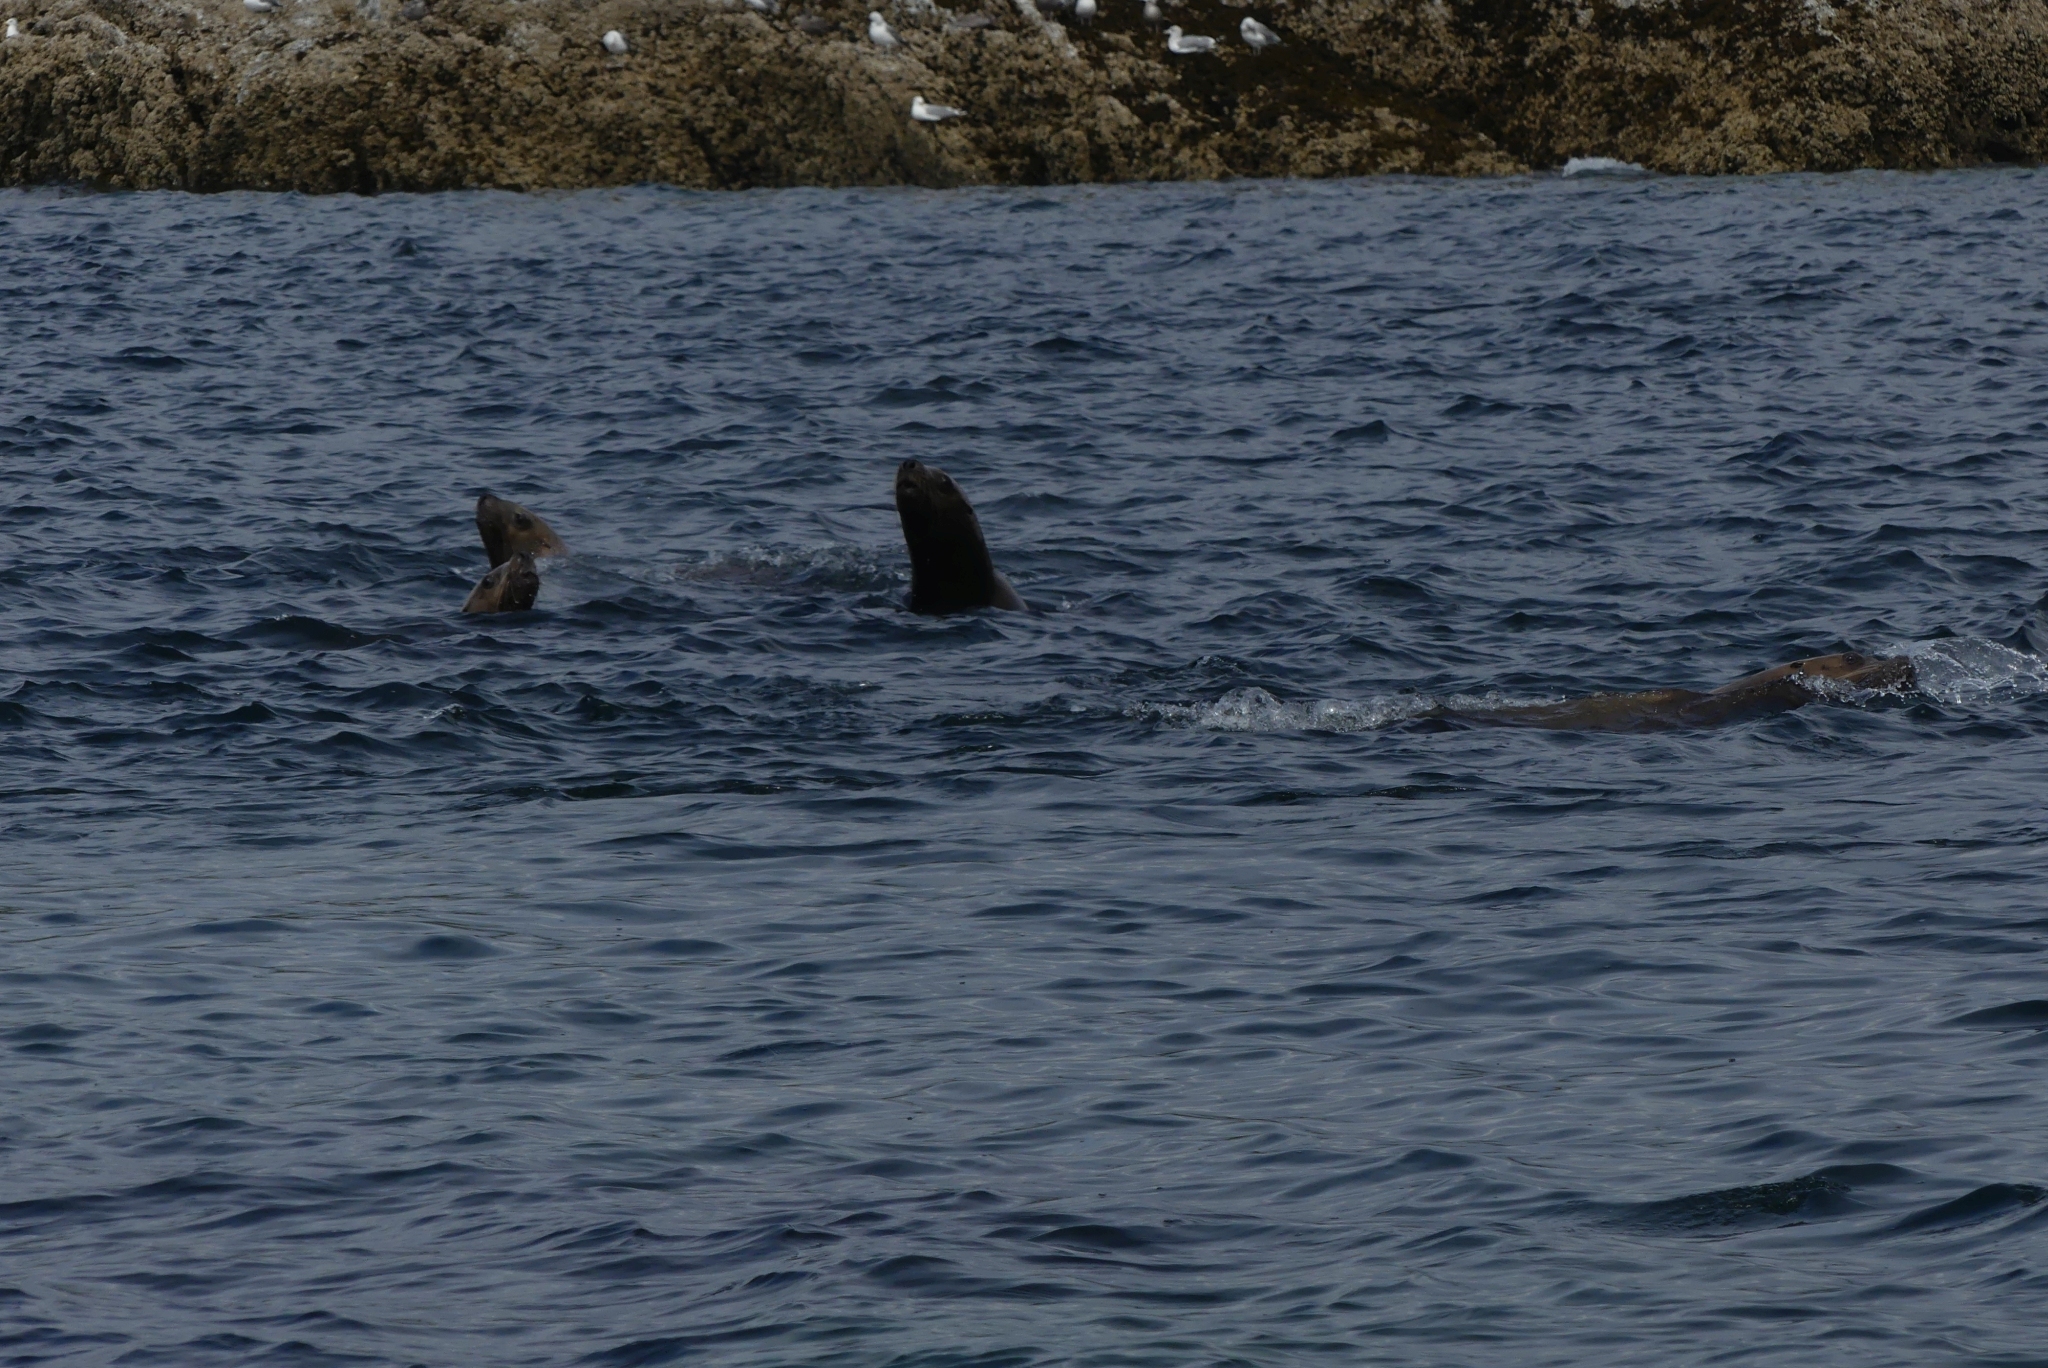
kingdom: Animalia
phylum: Chordata
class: Mammalia
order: Carnivora
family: Otariidae
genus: Eumetopias
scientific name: Eumetopias jubatus
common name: Steller sea lion
